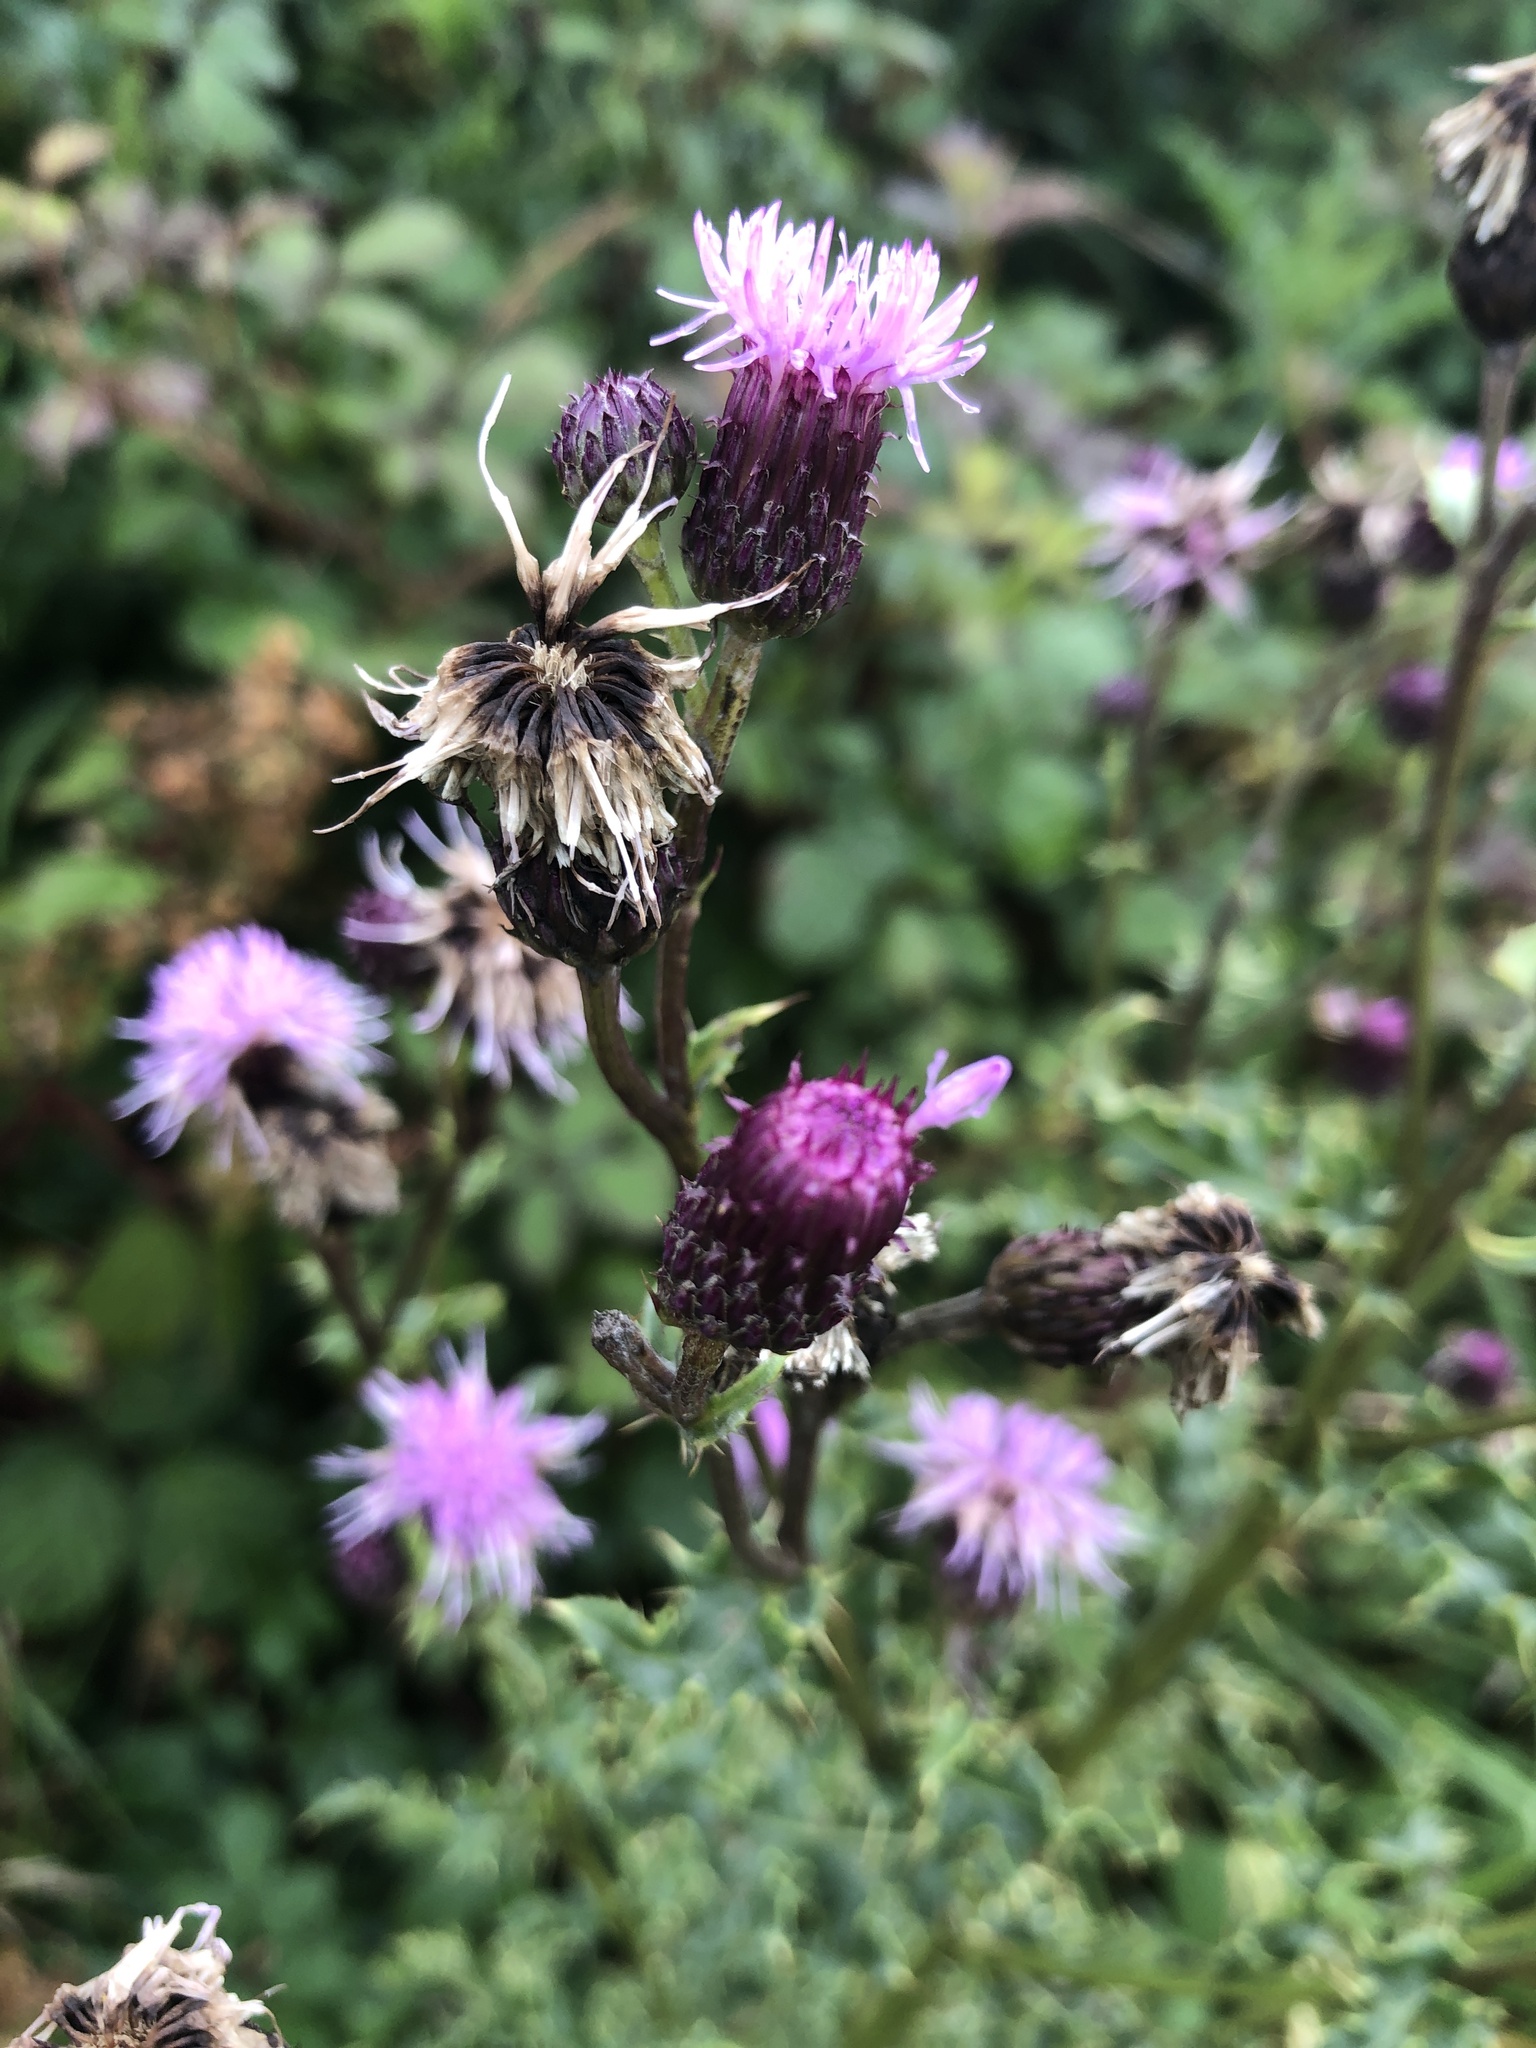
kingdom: Plantae
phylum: Tracheophyta
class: Magnoliopsida
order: Asterales
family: Asteraceae
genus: Cirsium
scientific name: Cirsium arvense
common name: Creeping thistle
